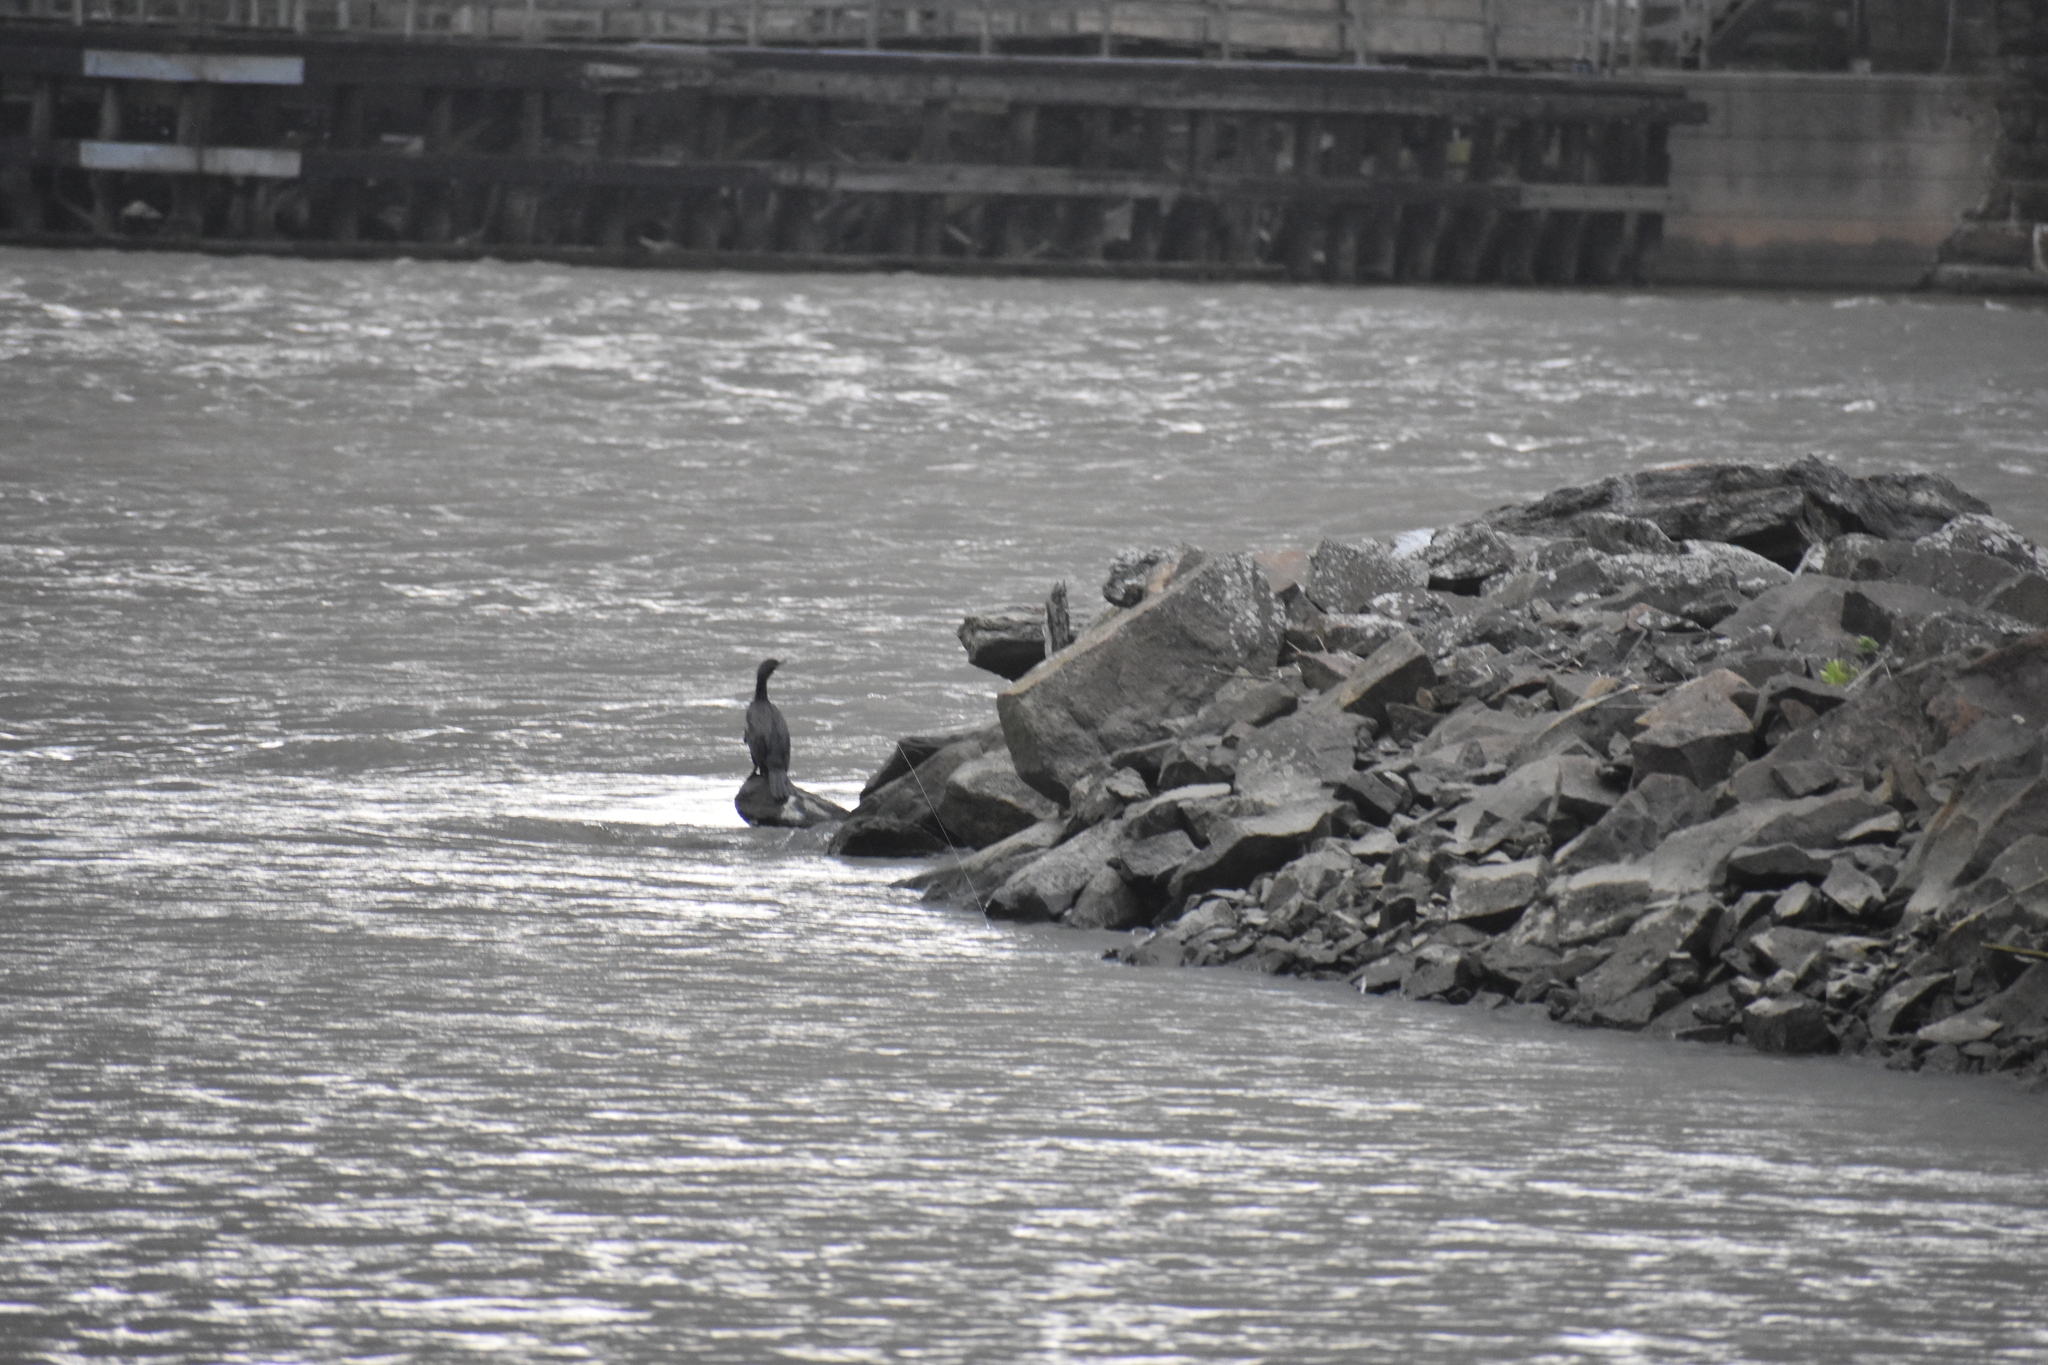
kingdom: Animalia
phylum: Chordata
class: Aves
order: Suliformes
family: Phalacrocoracidae
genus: Phalacrocorax
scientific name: Phalacrocorax auritus
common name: Double-crested cormorant
